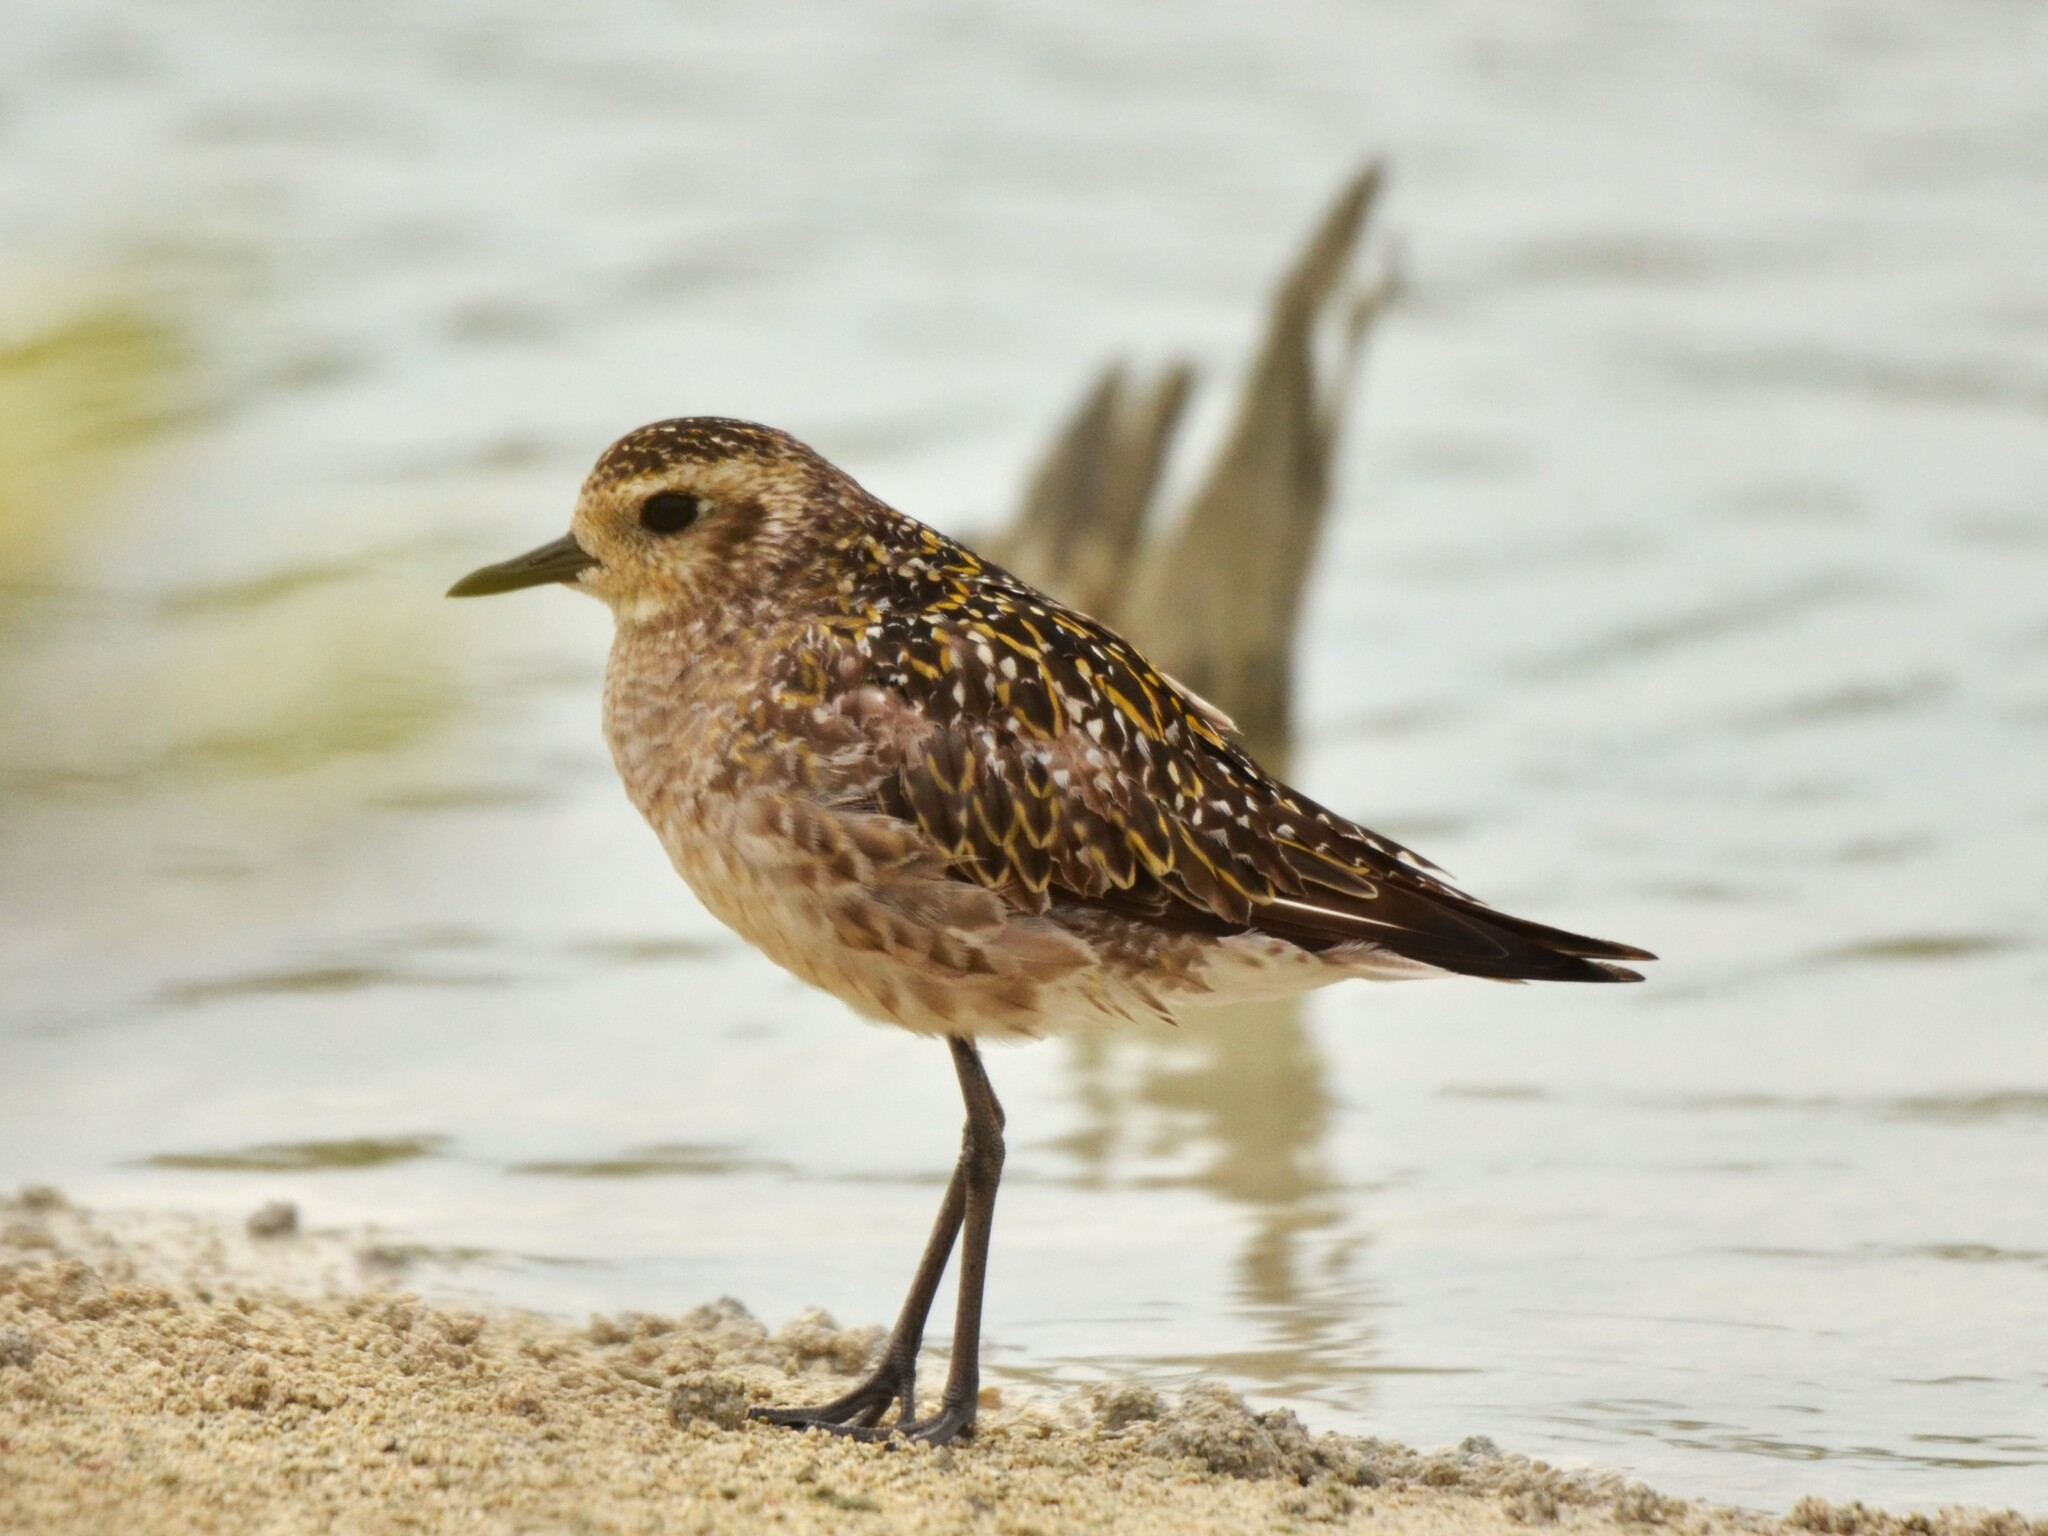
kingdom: Animalia
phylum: Chordata
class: Aves
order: Charadriiformes
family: Charadriidae
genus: Pluvialis
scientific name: Pluvialis fulva
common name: Pacific golden plover
